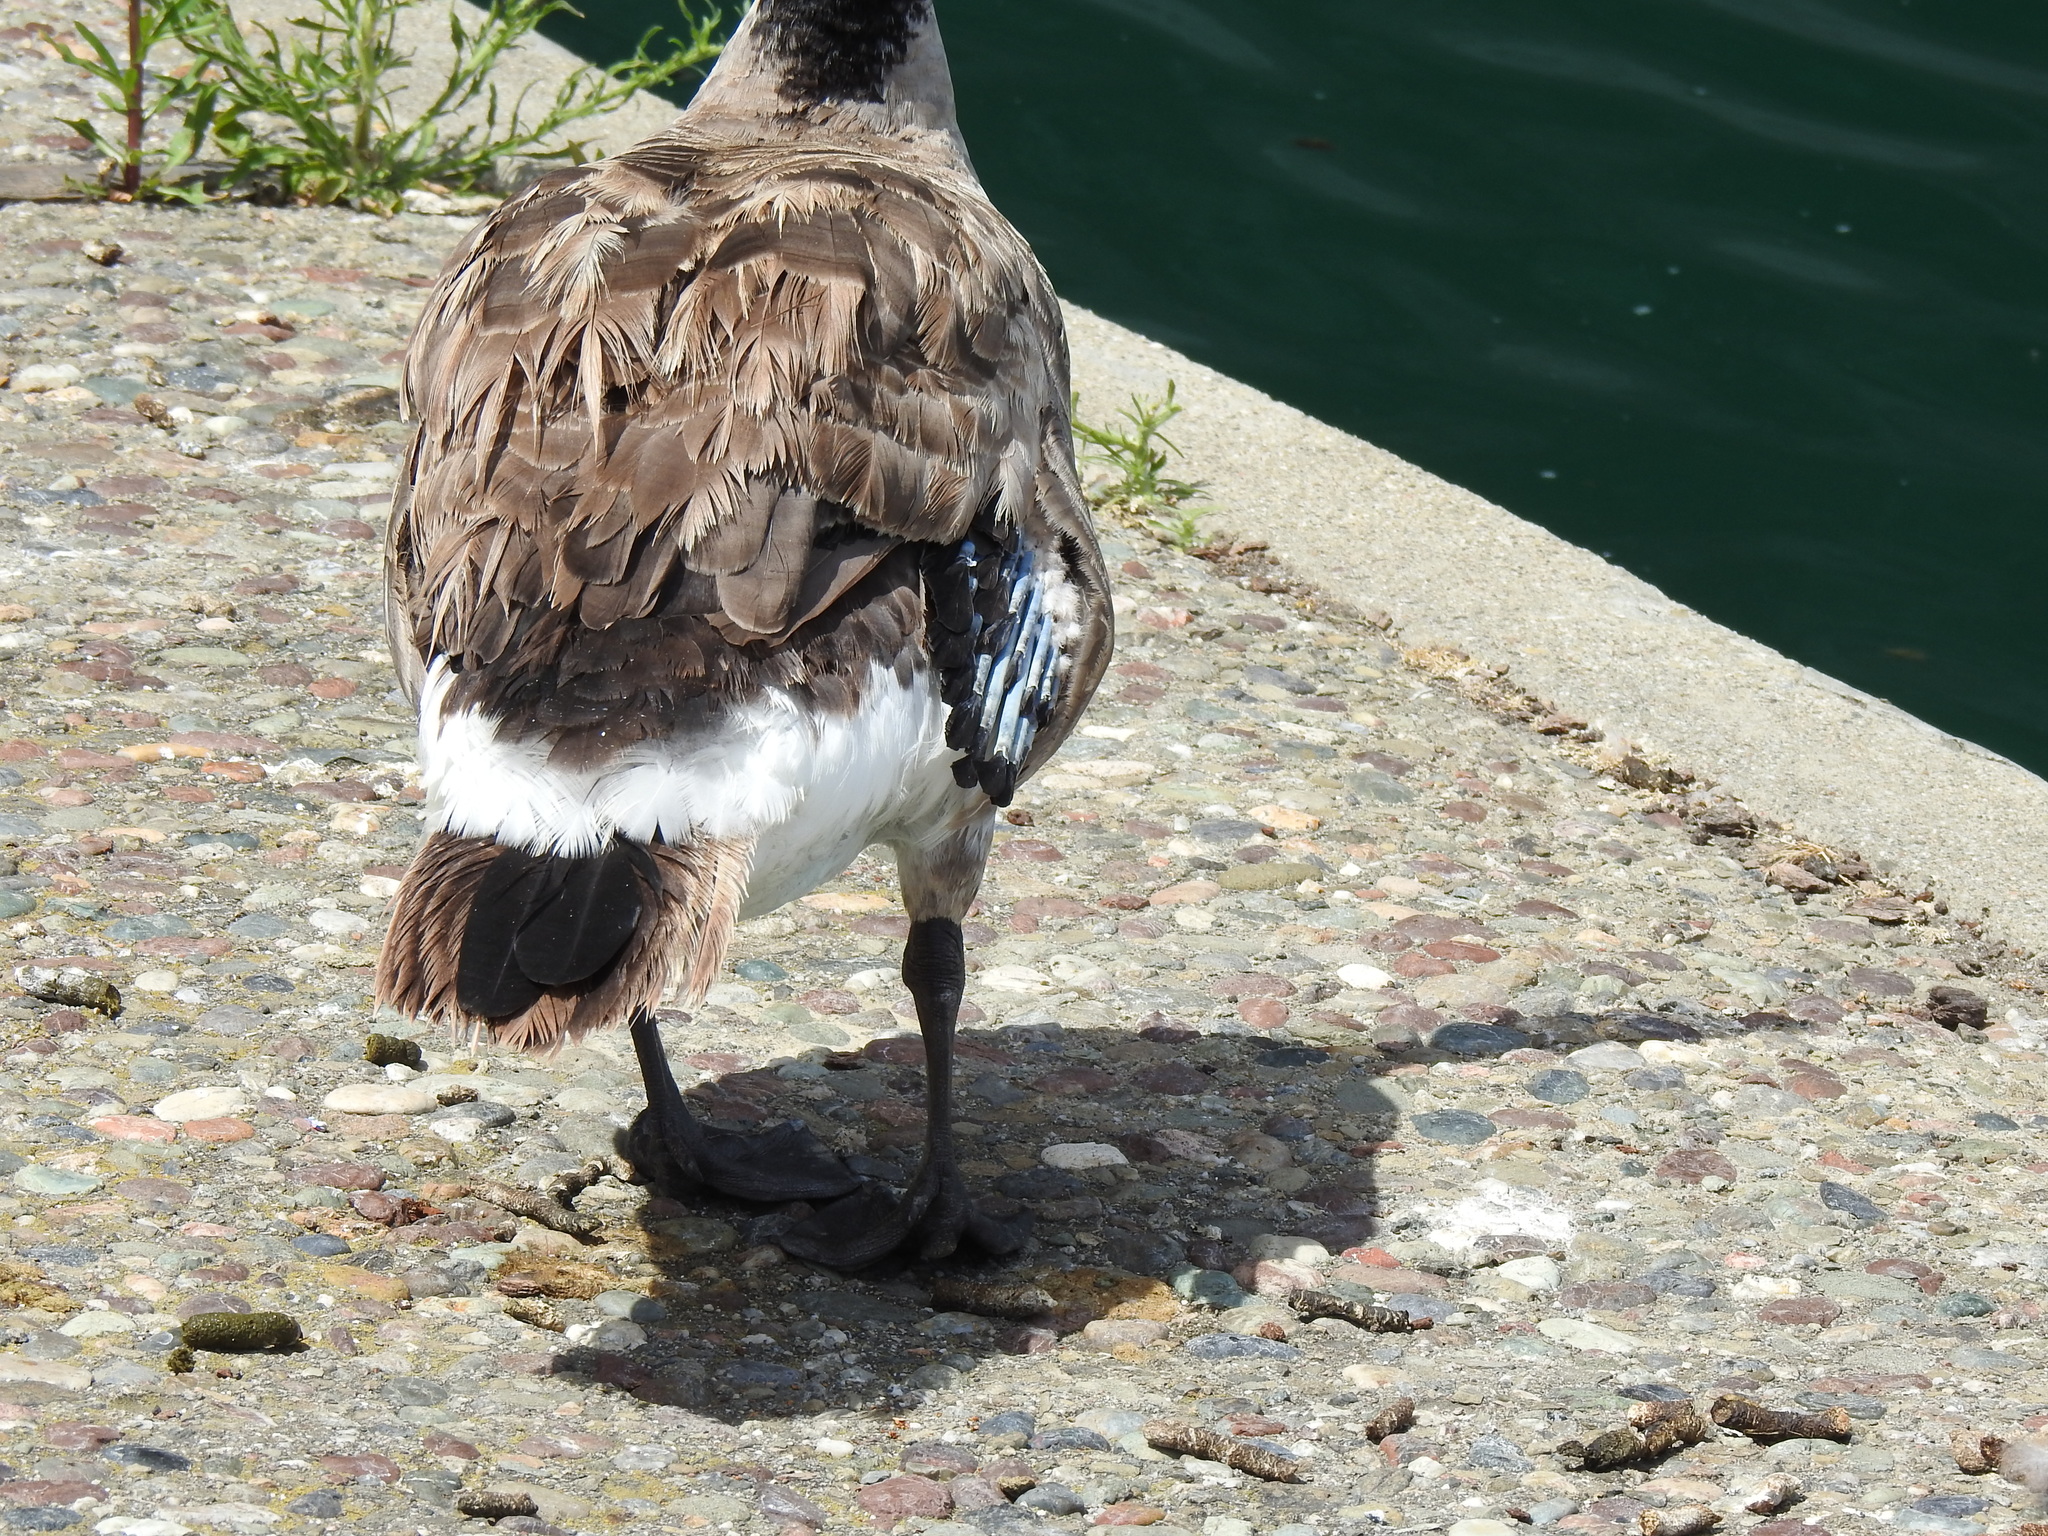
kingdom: Animalia
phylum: Chordata
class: Aves
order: Anseriformes
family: Anatidae
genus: Branta
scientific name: Branta canadensis
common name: Canada goose
